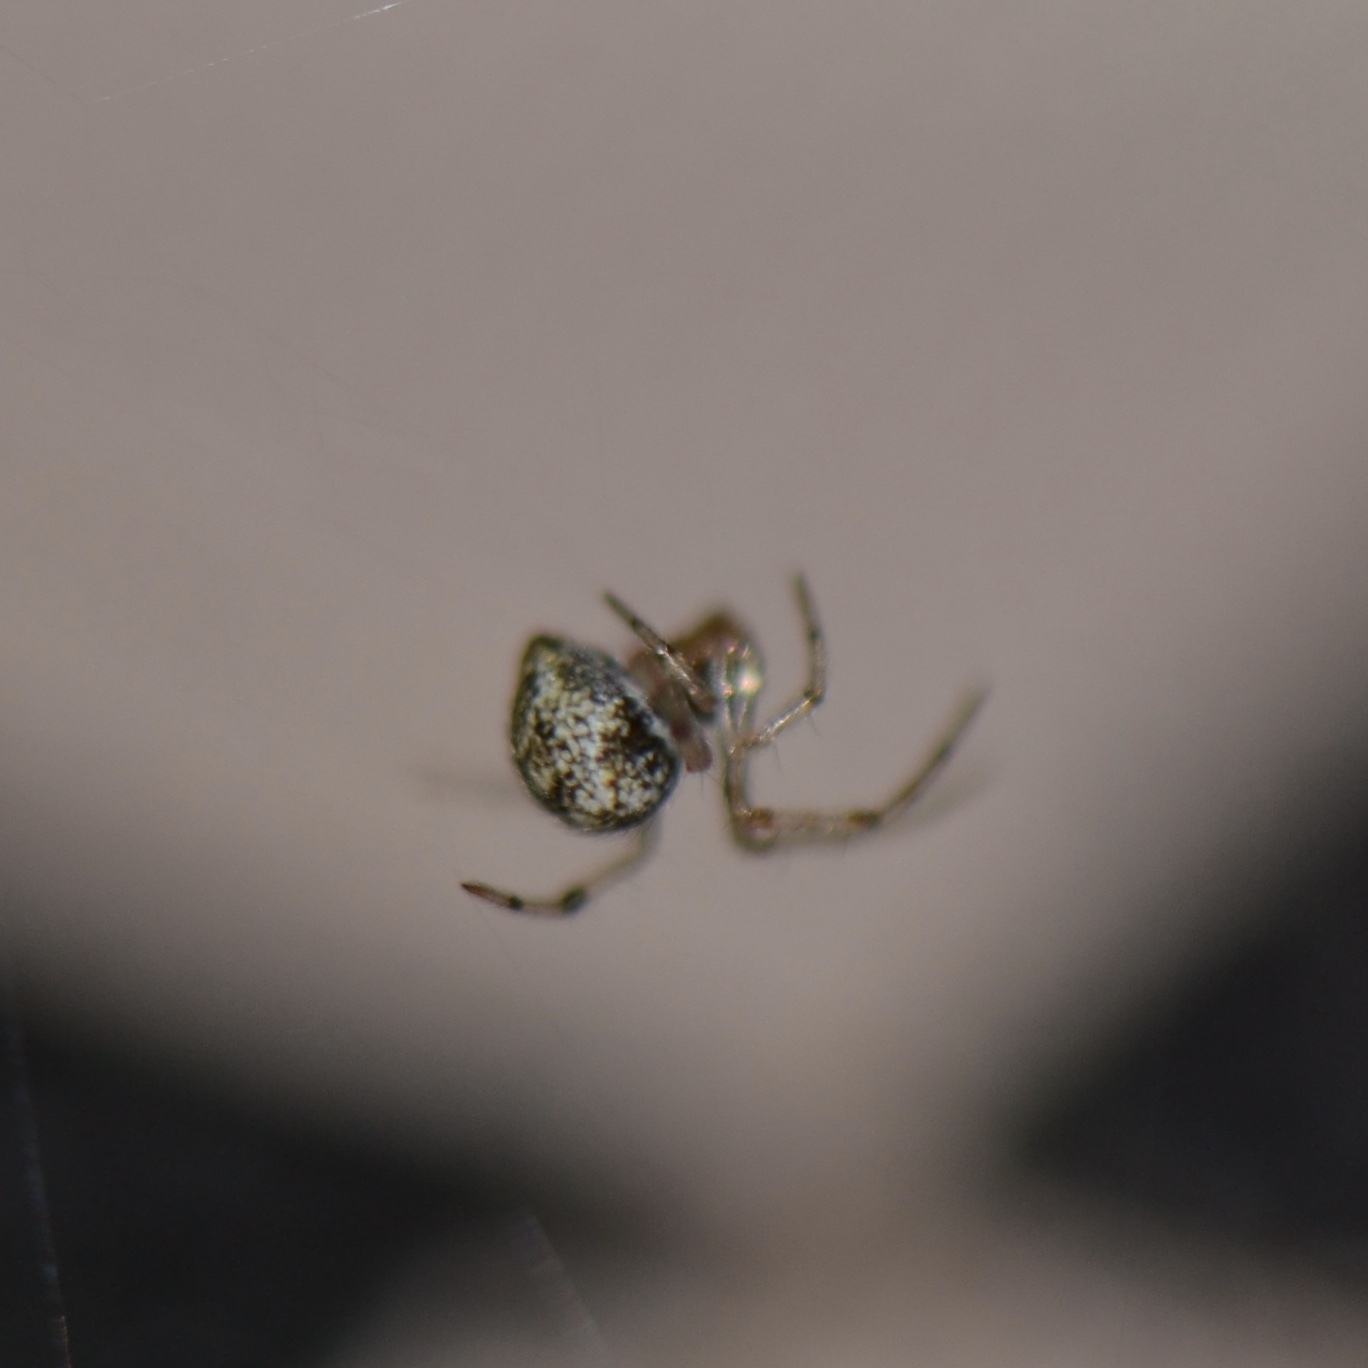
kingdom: Animalia
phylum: Arthropoda
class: Arachnida
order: Araneae
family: Theridiidae
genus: Parasteatoda
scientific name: Parasteatoda tepidariorum
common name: Common house spider
